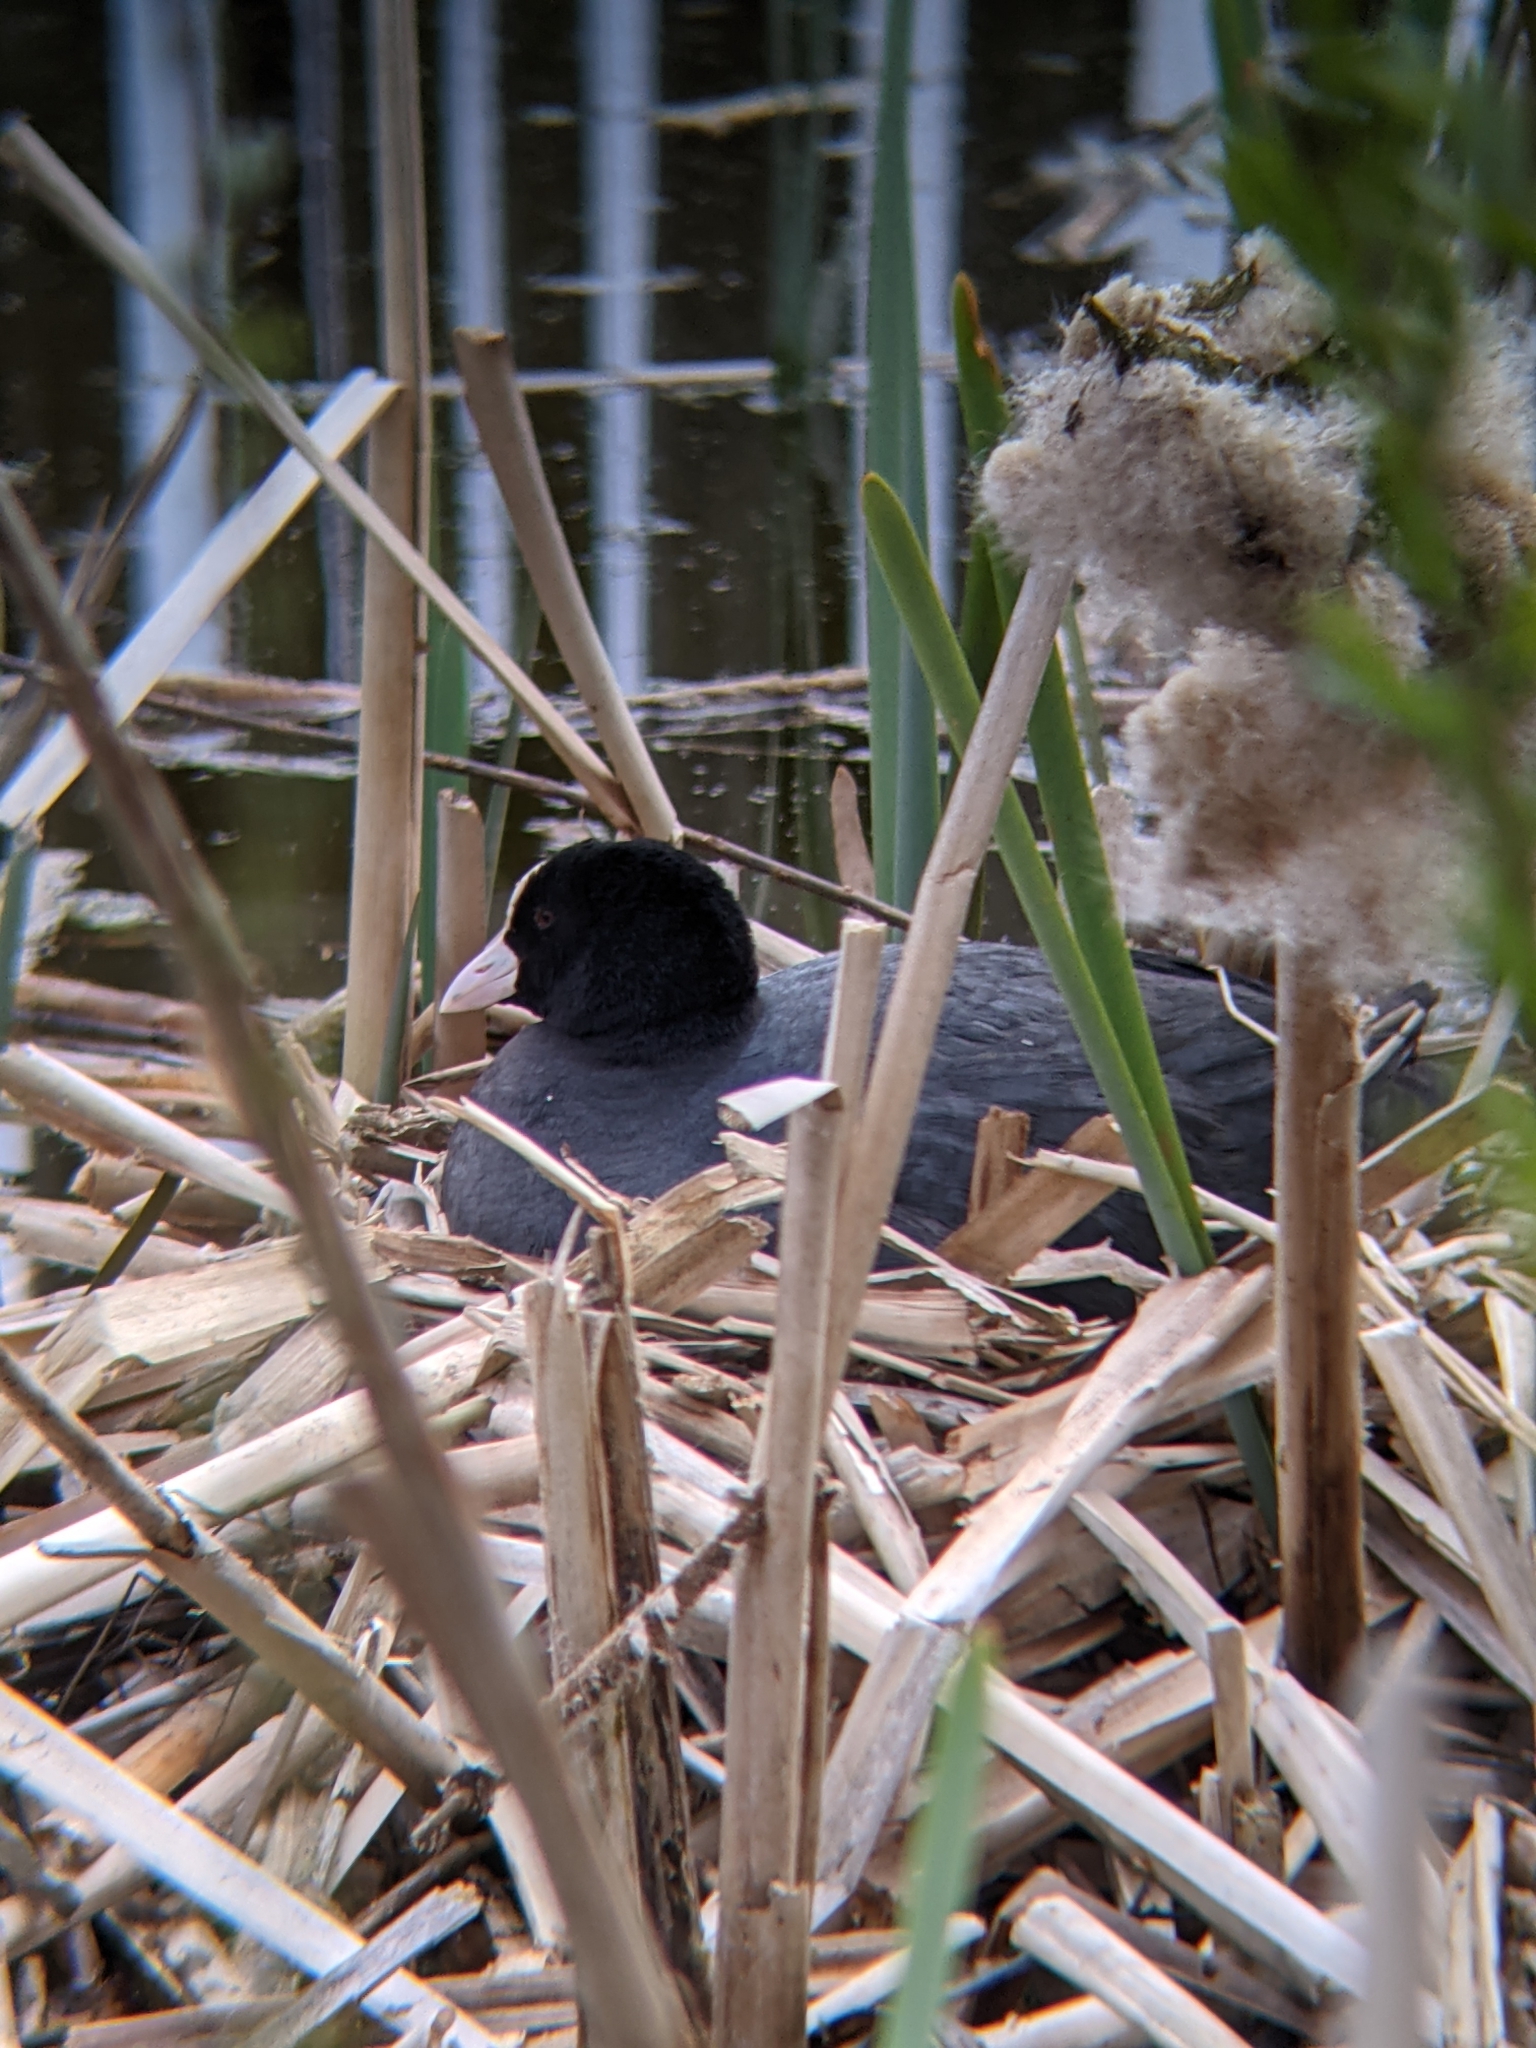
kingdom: Animalia
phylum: Chordata
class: Aves
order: Gruiformes
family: Rallidae
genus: Fulica
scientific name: Fulica atra
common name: Eurasian coot
